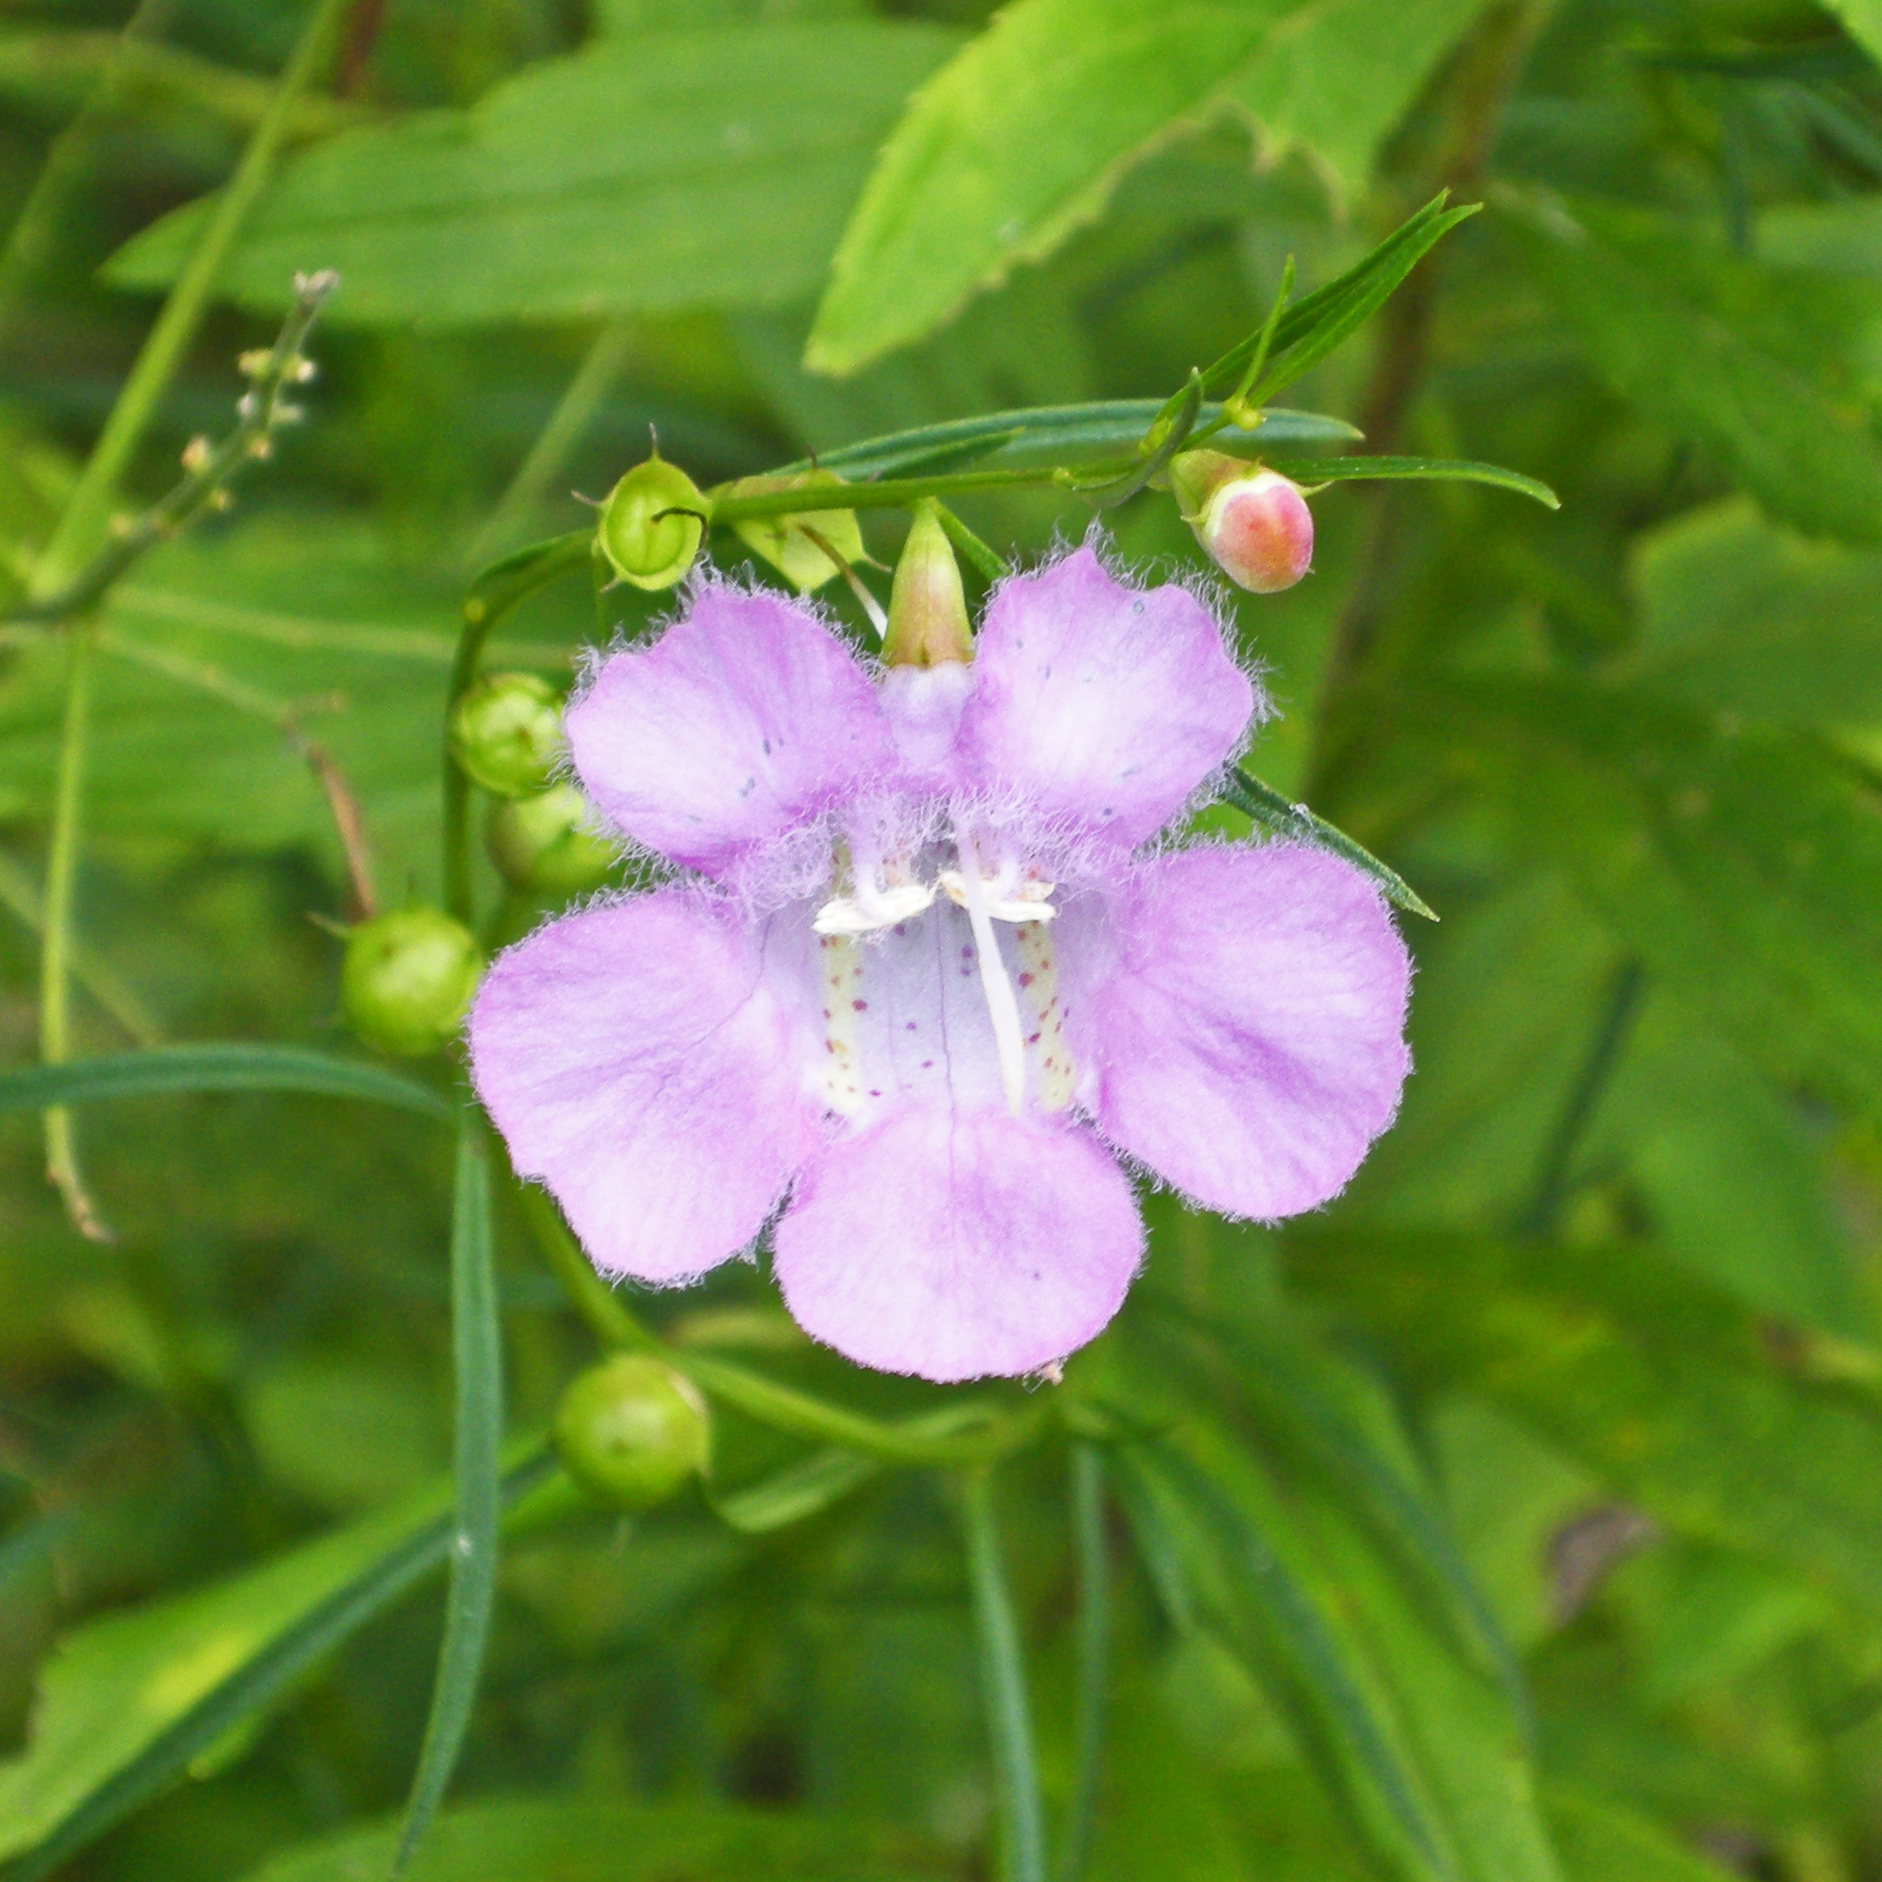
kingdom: Plantae
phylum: Tracheophyta
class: Magnoliopsida
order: Lamiales
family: Orobanchaceae
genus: Agalinis
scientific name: Agalinis purpurea
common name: Purple false foxglove
